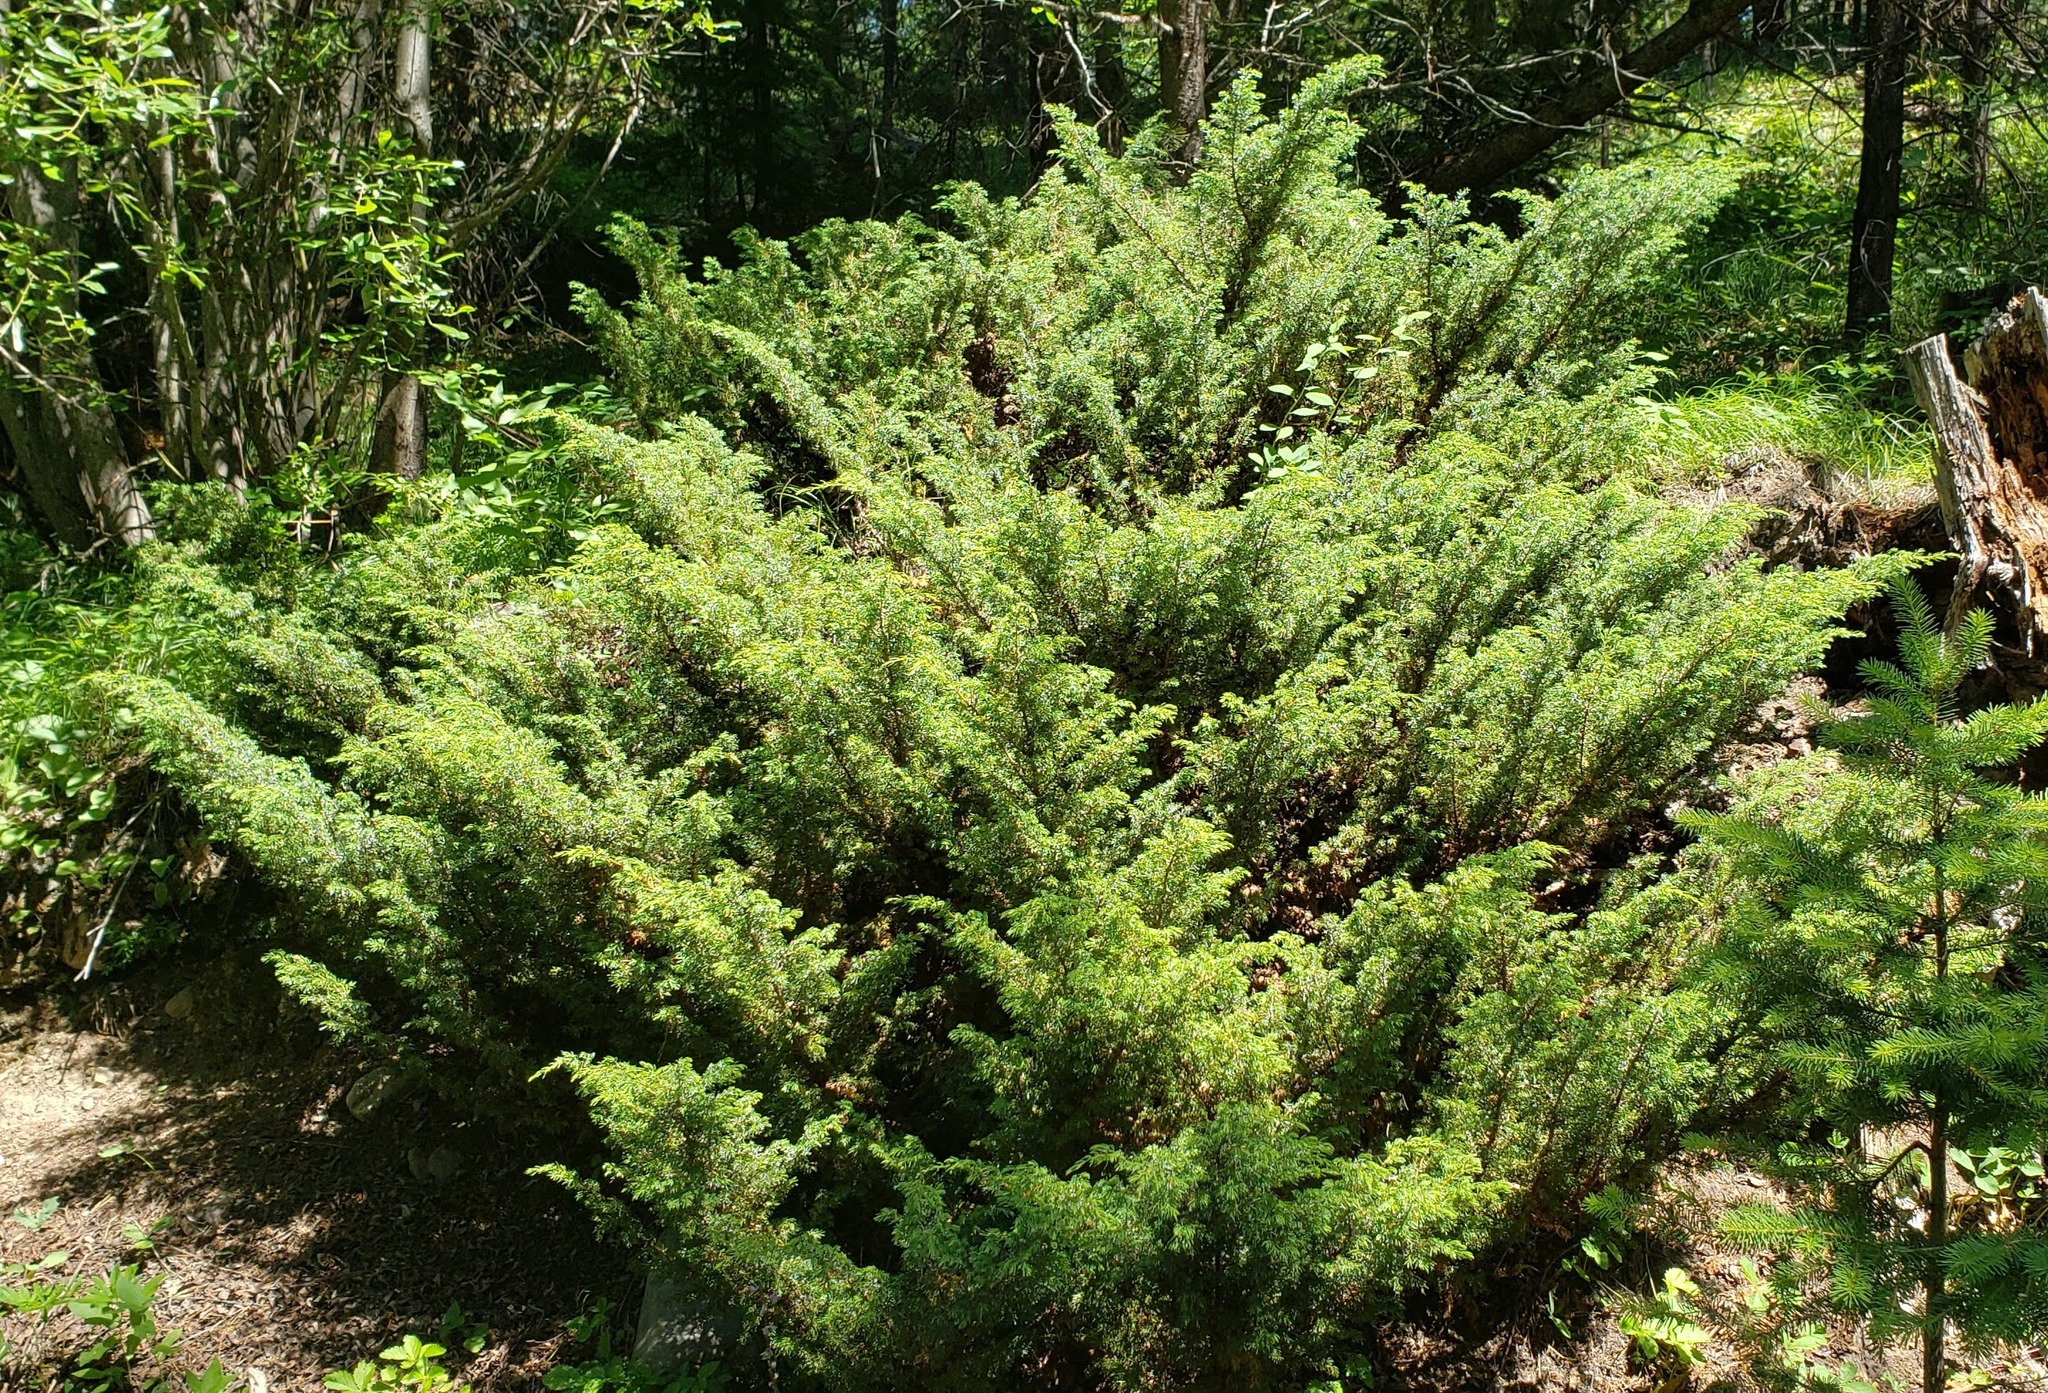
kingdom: Plantae
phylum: Tracheophyta
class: Pinopsida
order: Pinales
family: Cupressaceae
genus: Juniperus
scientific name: Juniperus communis
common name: Common juniper
